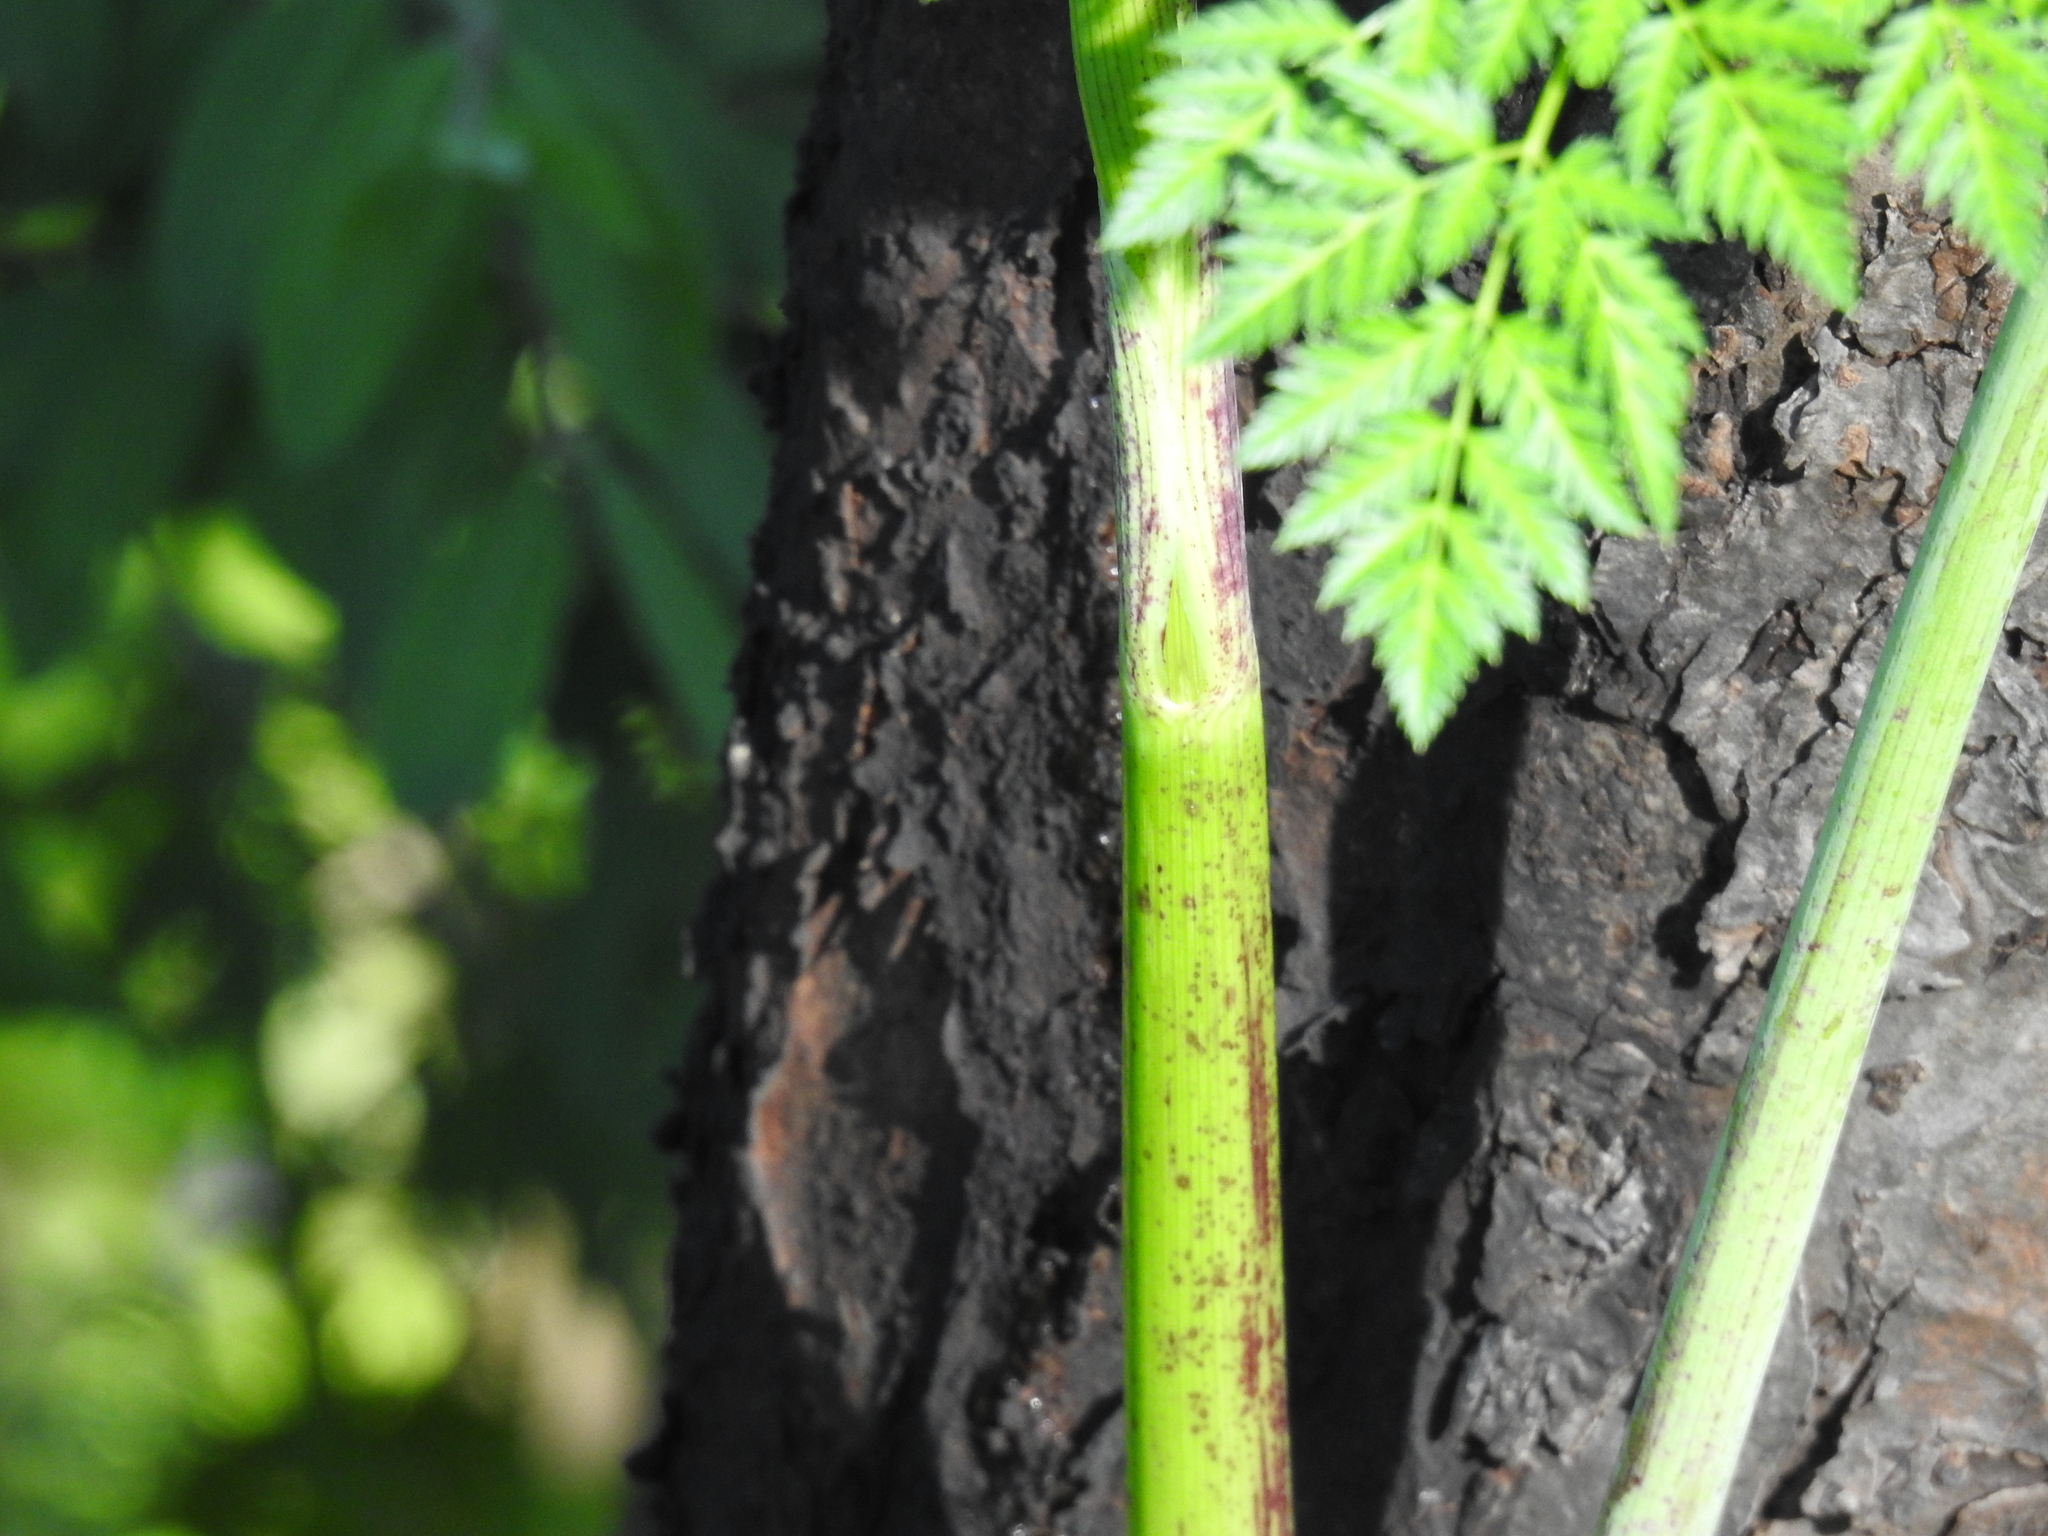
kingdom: Plantae
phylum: Tracheophyta
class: Magnoliopsida
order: Apiales
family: Apiaceae
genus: Conium
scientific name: Conium maculatum
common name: Hemlock
